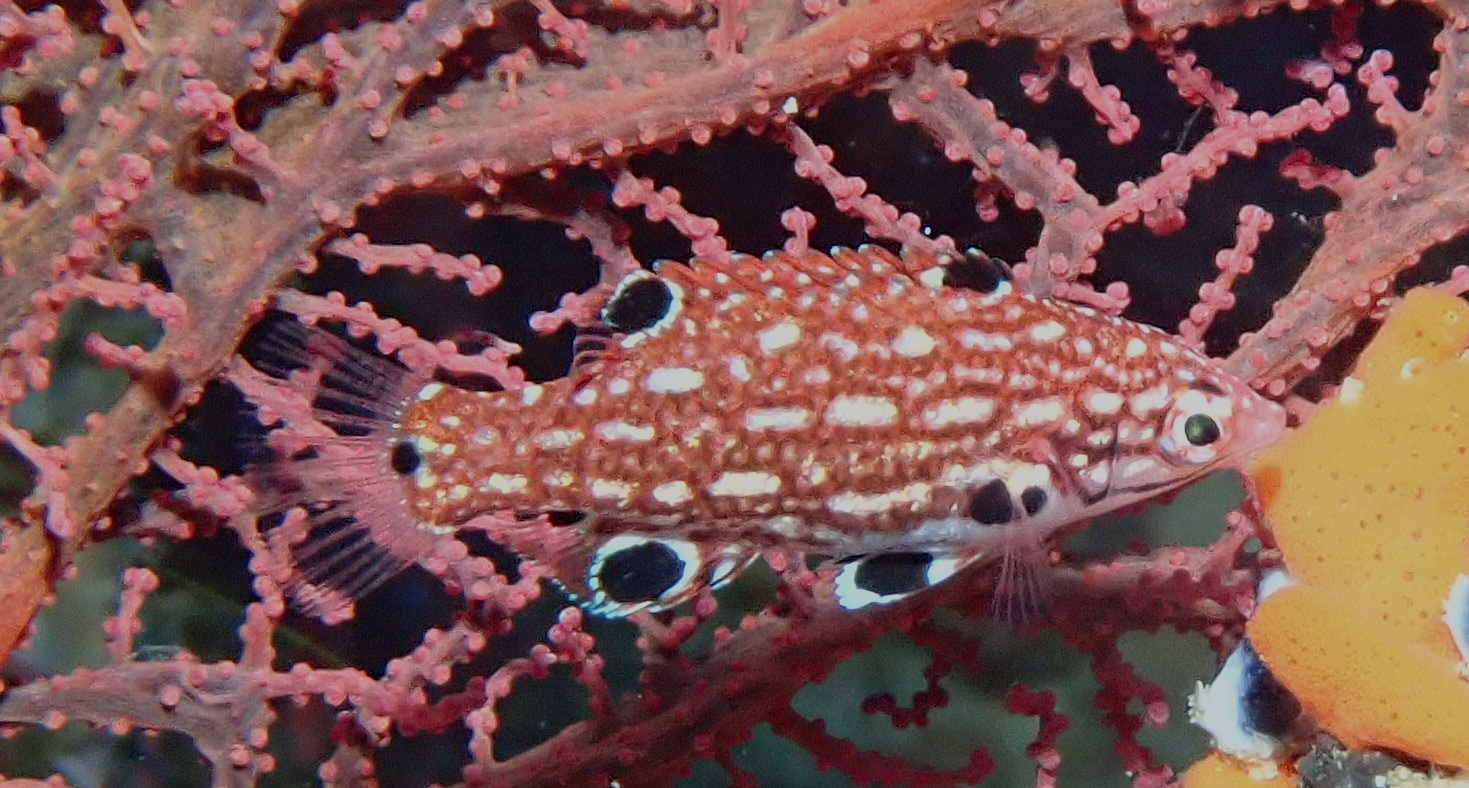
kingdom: Animalia
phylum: Chordata
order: Perciformes
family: Labridae
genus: Bodianus
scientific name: Bodianus dictynna
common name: Diana's hogfish
